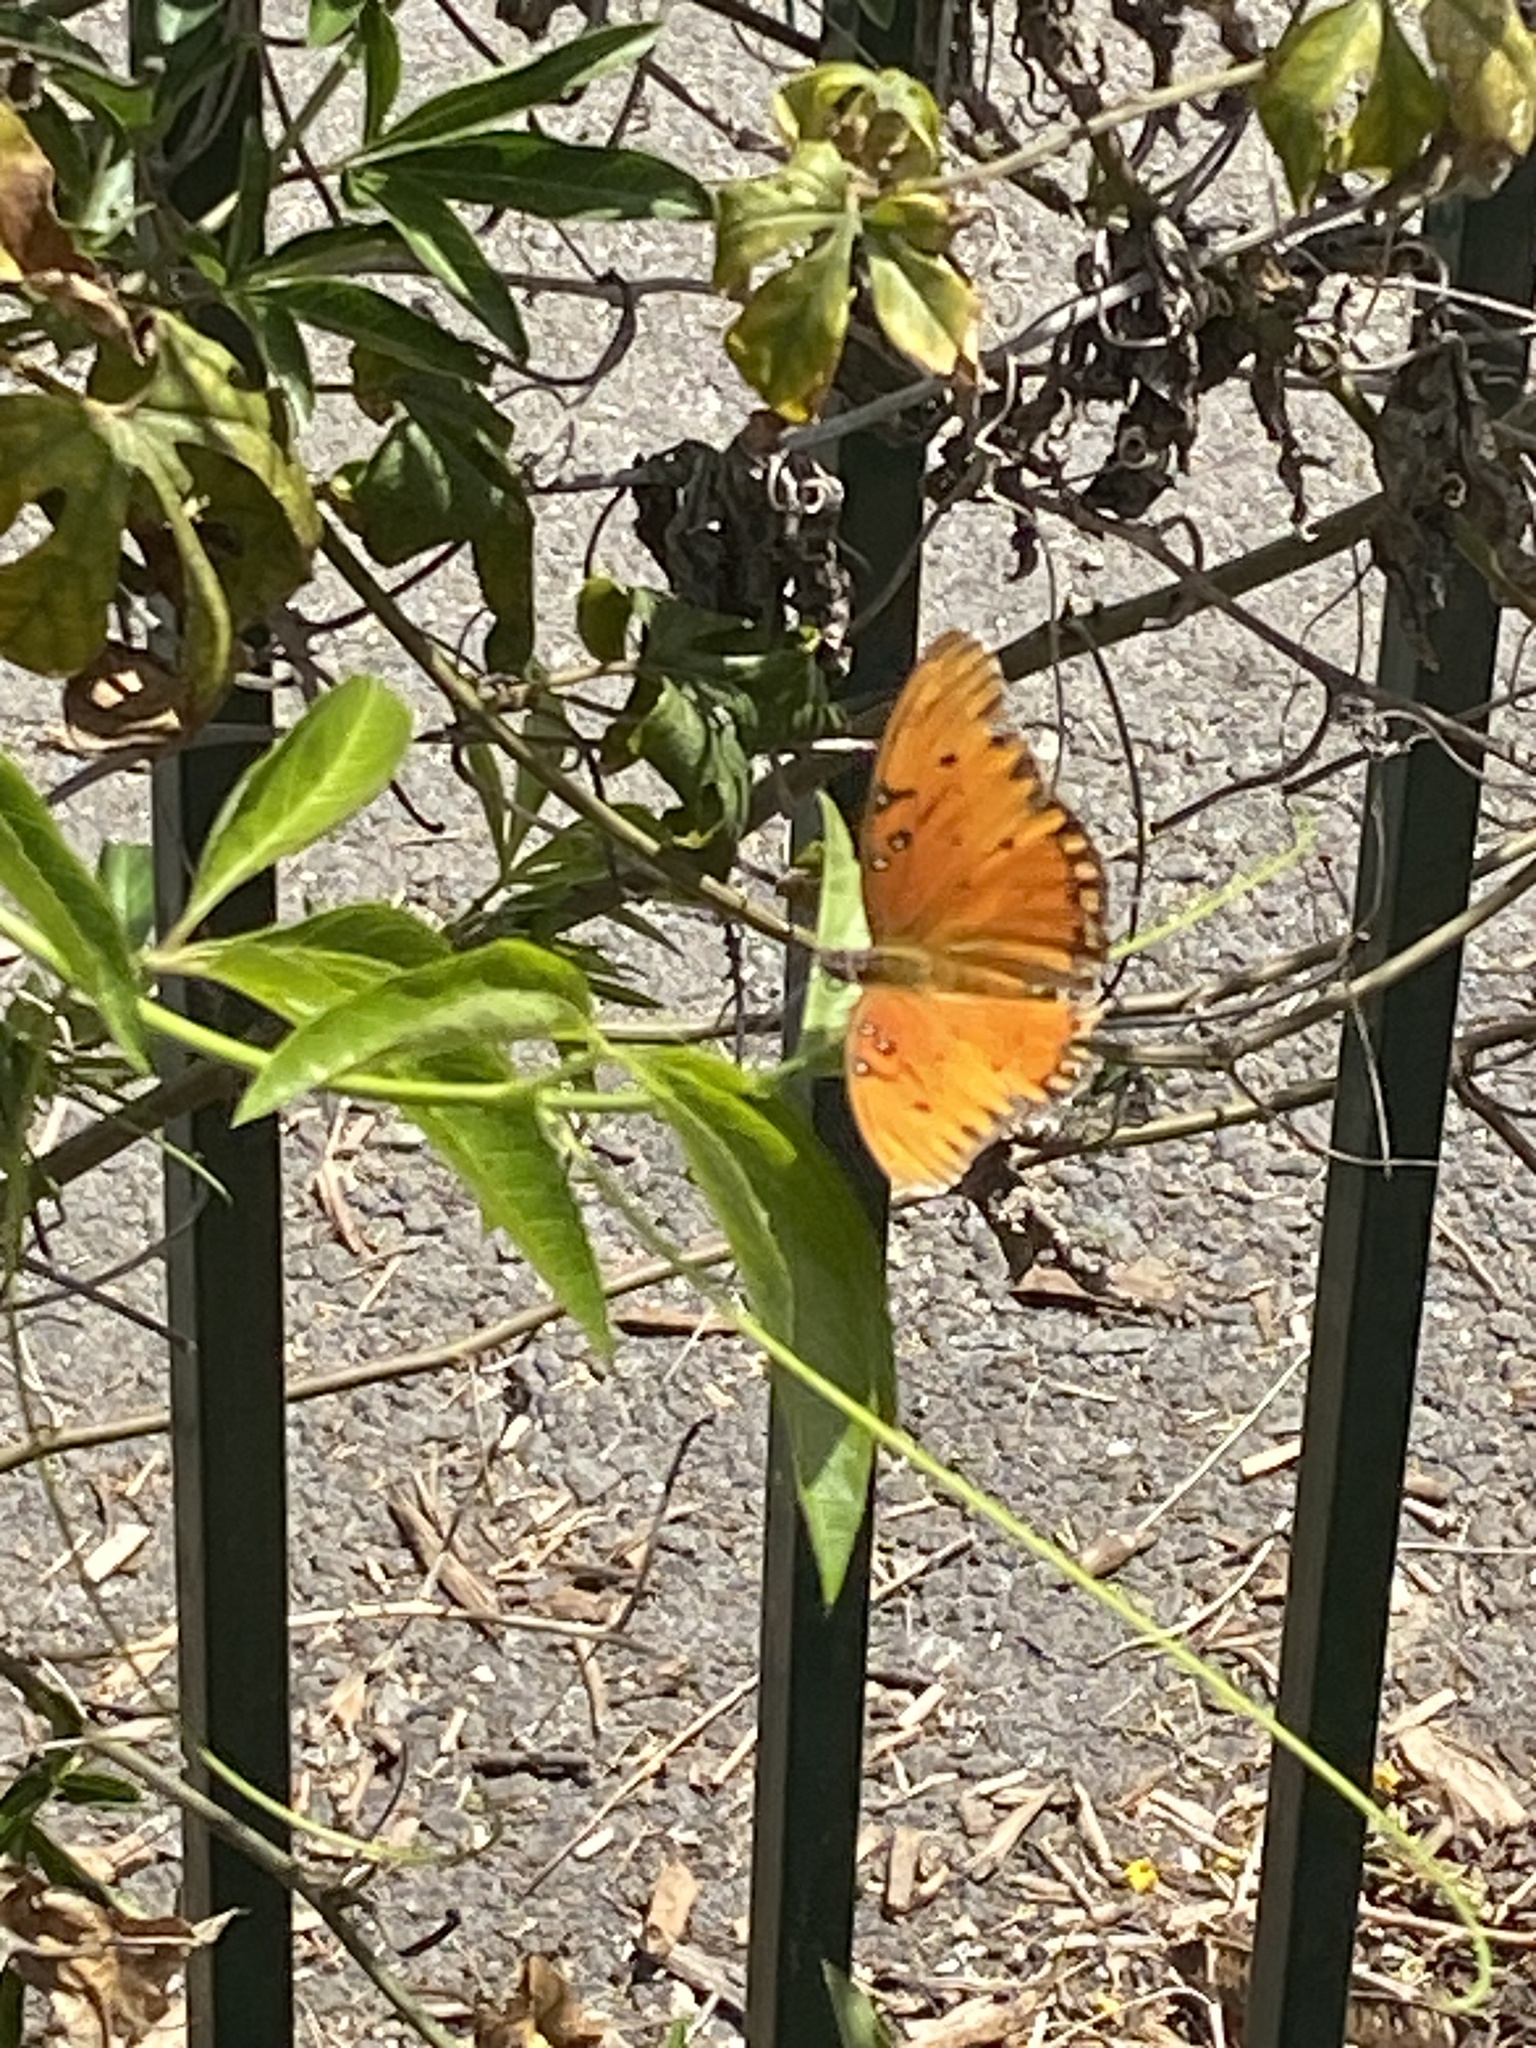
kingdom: Animalia
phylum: Arthropoda
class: Insecta
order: Lepidoptera
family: Nymphalidae
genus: Dione
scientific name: Dione vanillae
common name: Gulf fritillary
